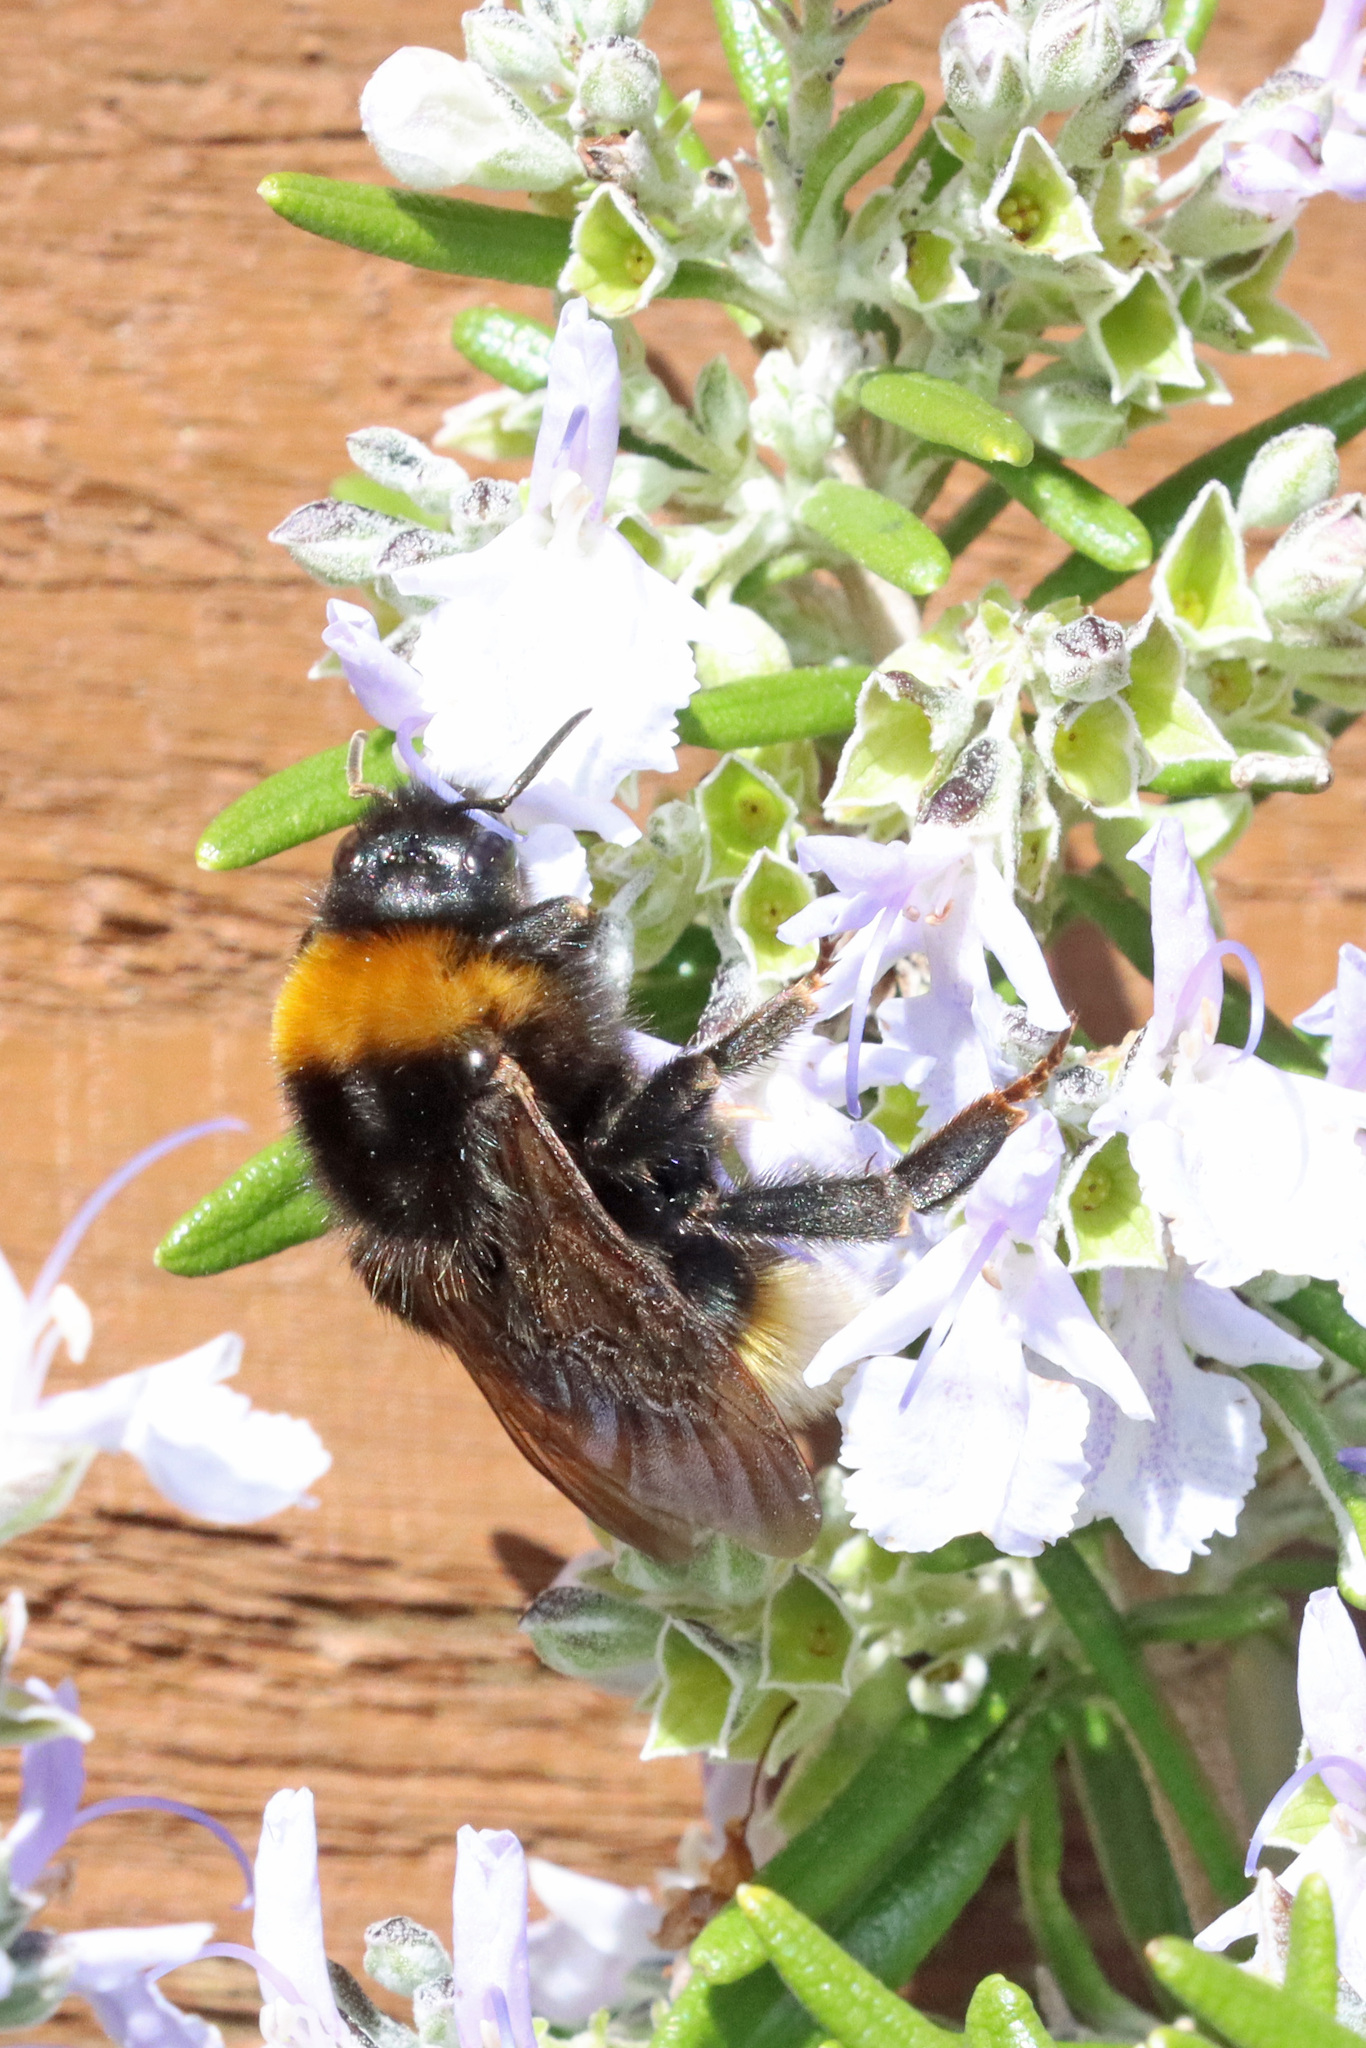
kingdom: Animalia
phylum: Arthropoda
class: Insecta
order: Hymenoptera
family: Apidae
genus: Bombus
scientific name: Bombus vestalis
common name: Vestal cuckoo bee
